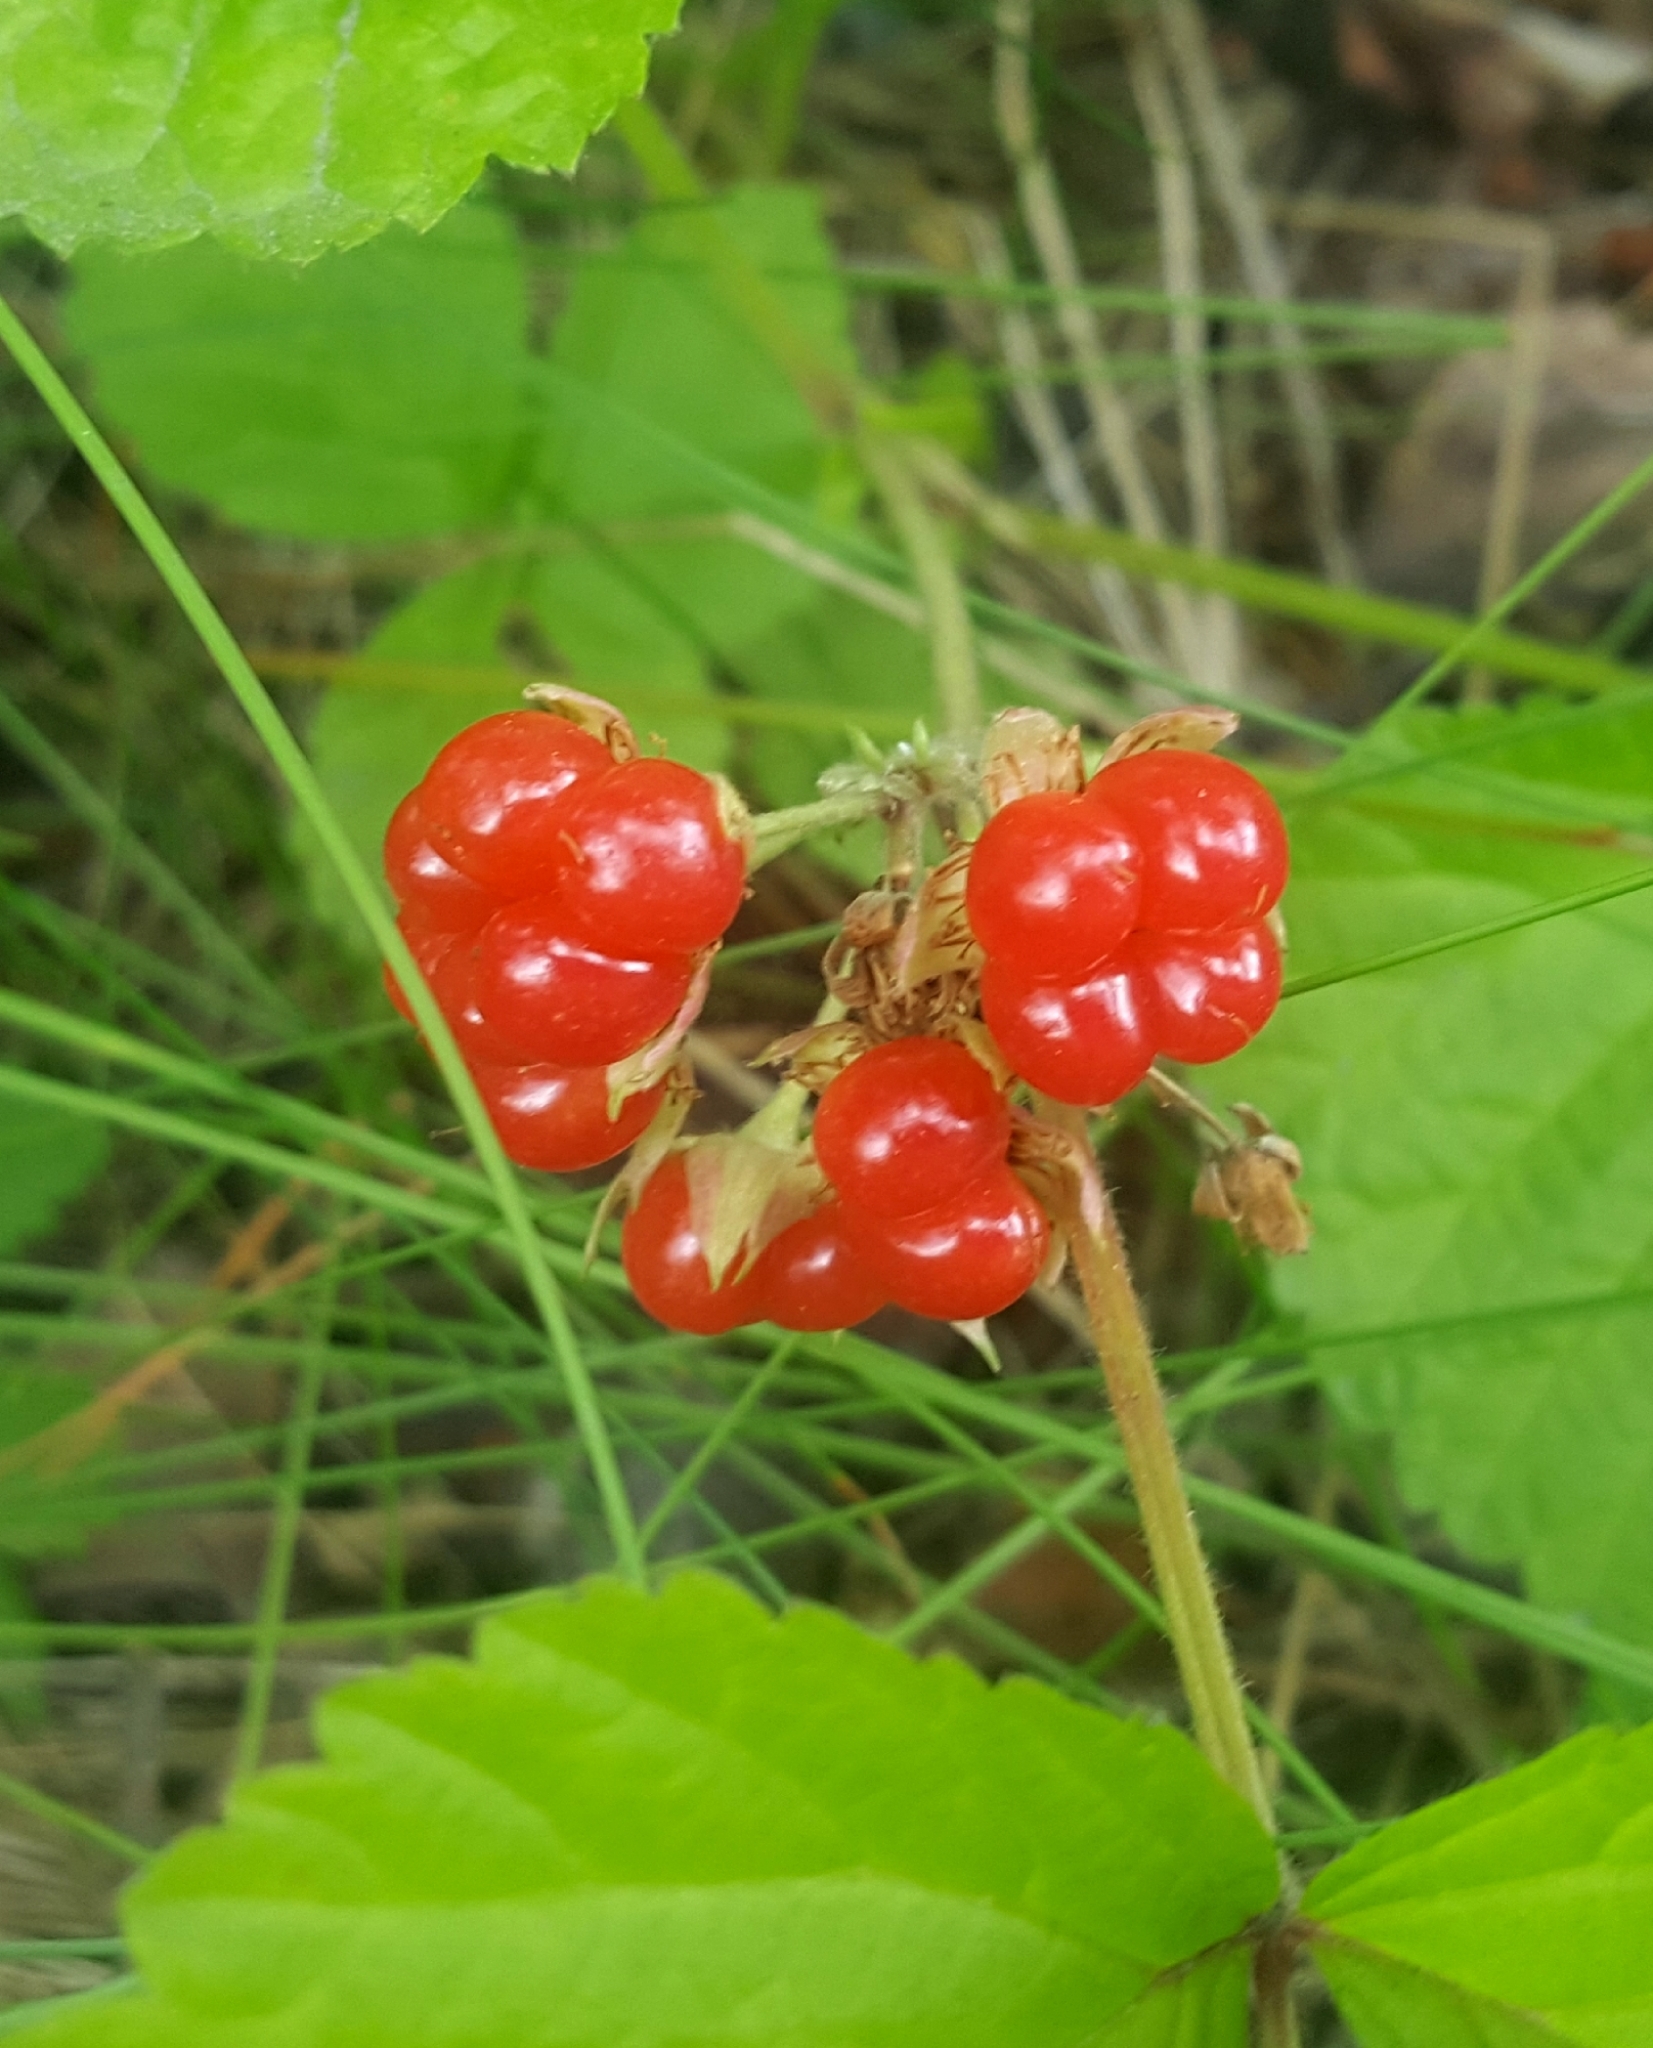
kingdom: Plantae
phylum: Tracheophyta
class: Magnoliopsida
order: Rosales
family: Rosaceae
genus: Rubus
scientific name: Rubus saxatilis
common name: Stone bramble
